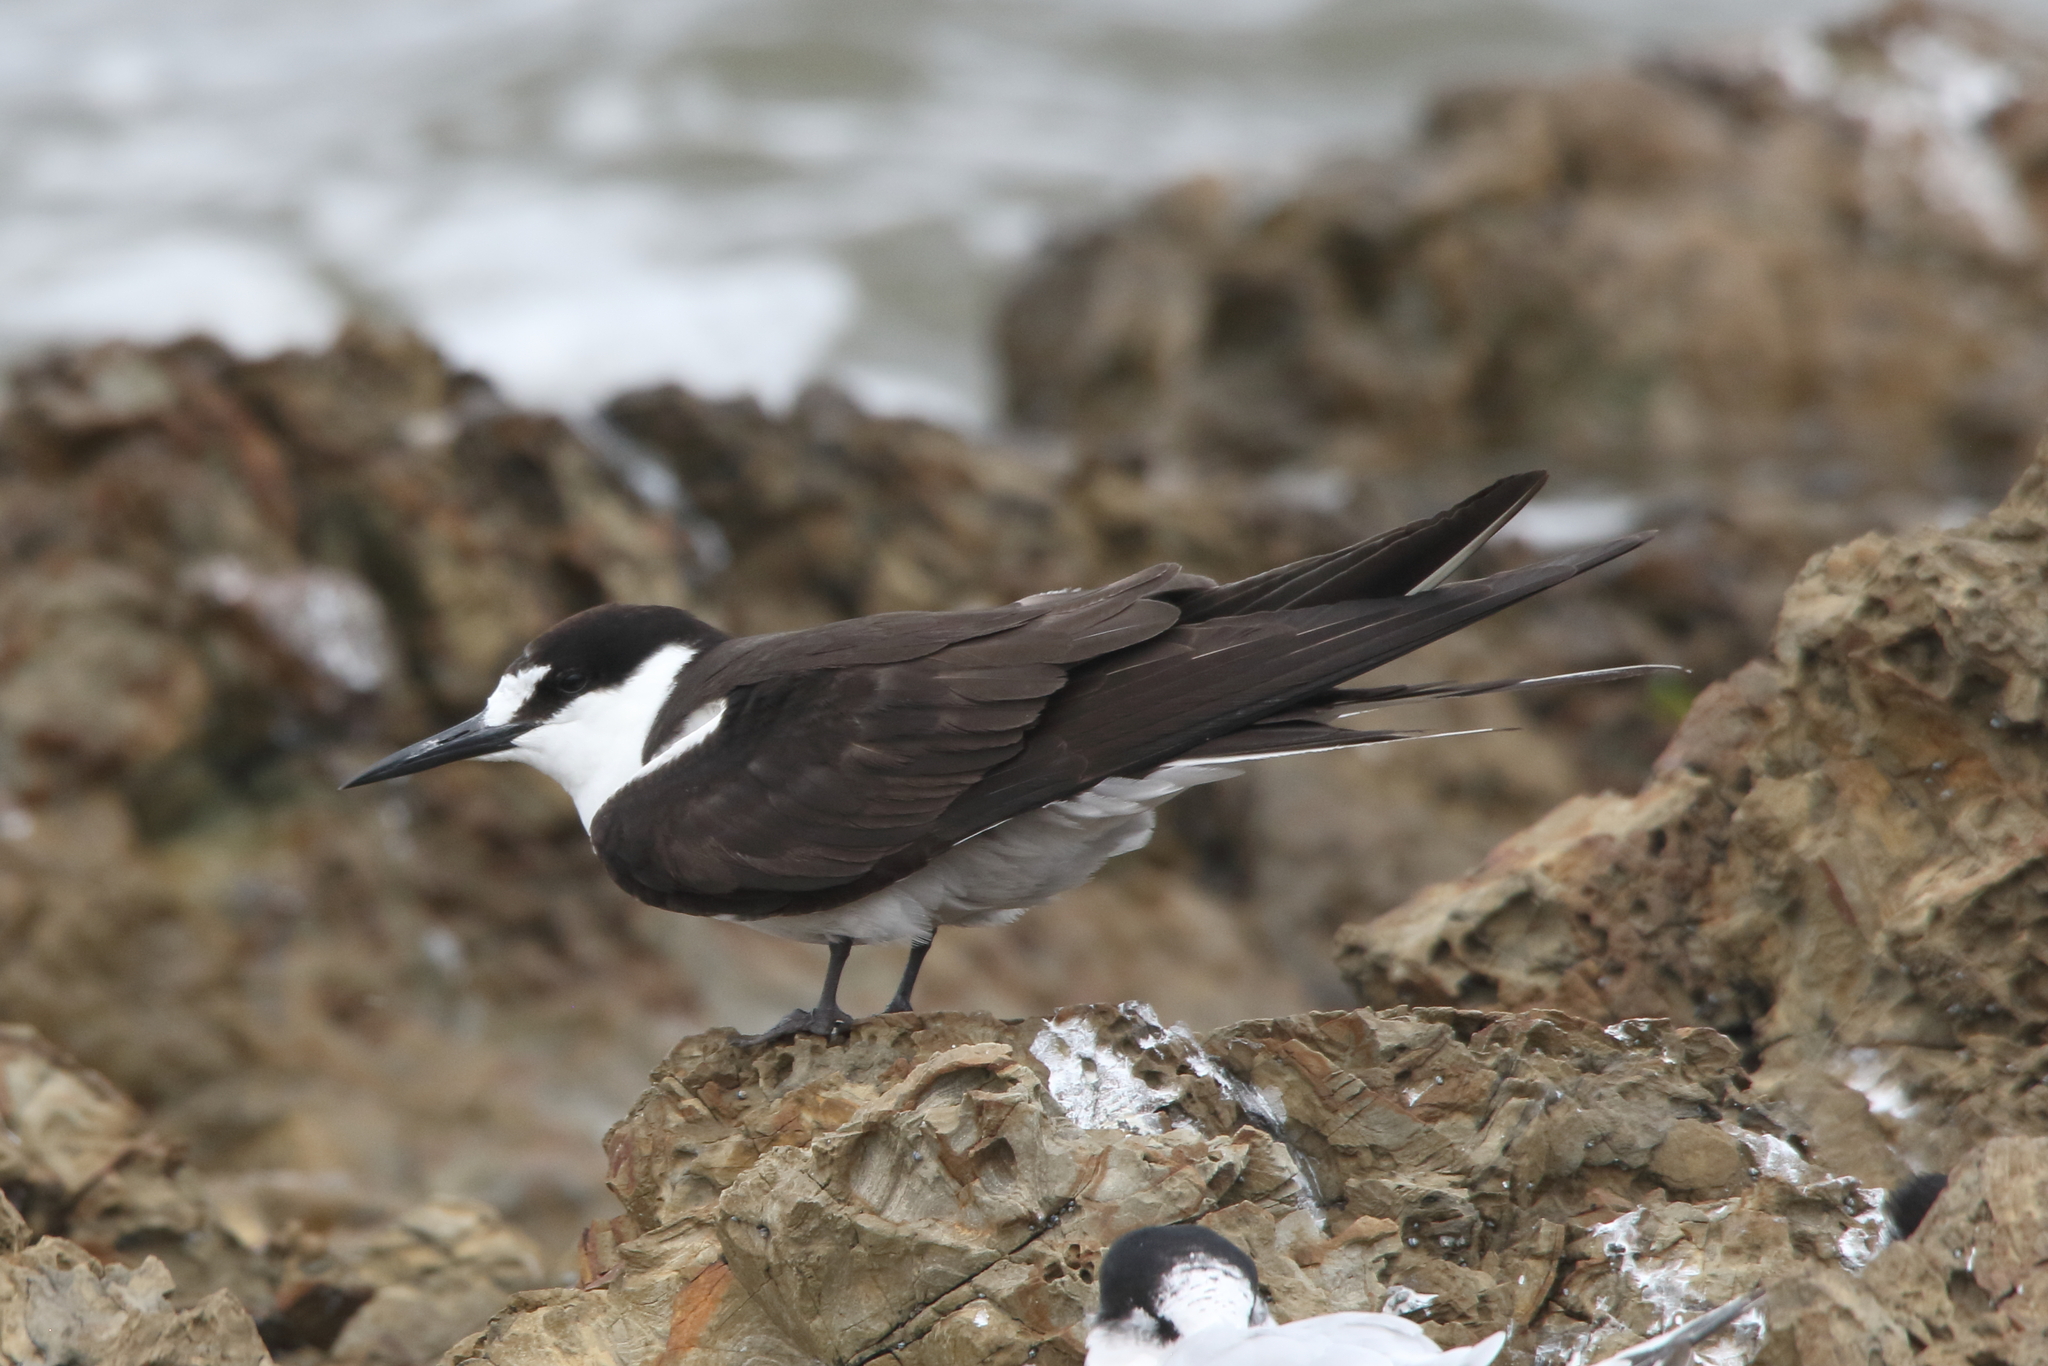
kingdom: Animalia
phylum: Chordata
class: Aves
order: Charadriiformes
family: Laridae
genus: Onychoprion
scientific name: Onychoprion fuscatus
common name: Sooty tern
